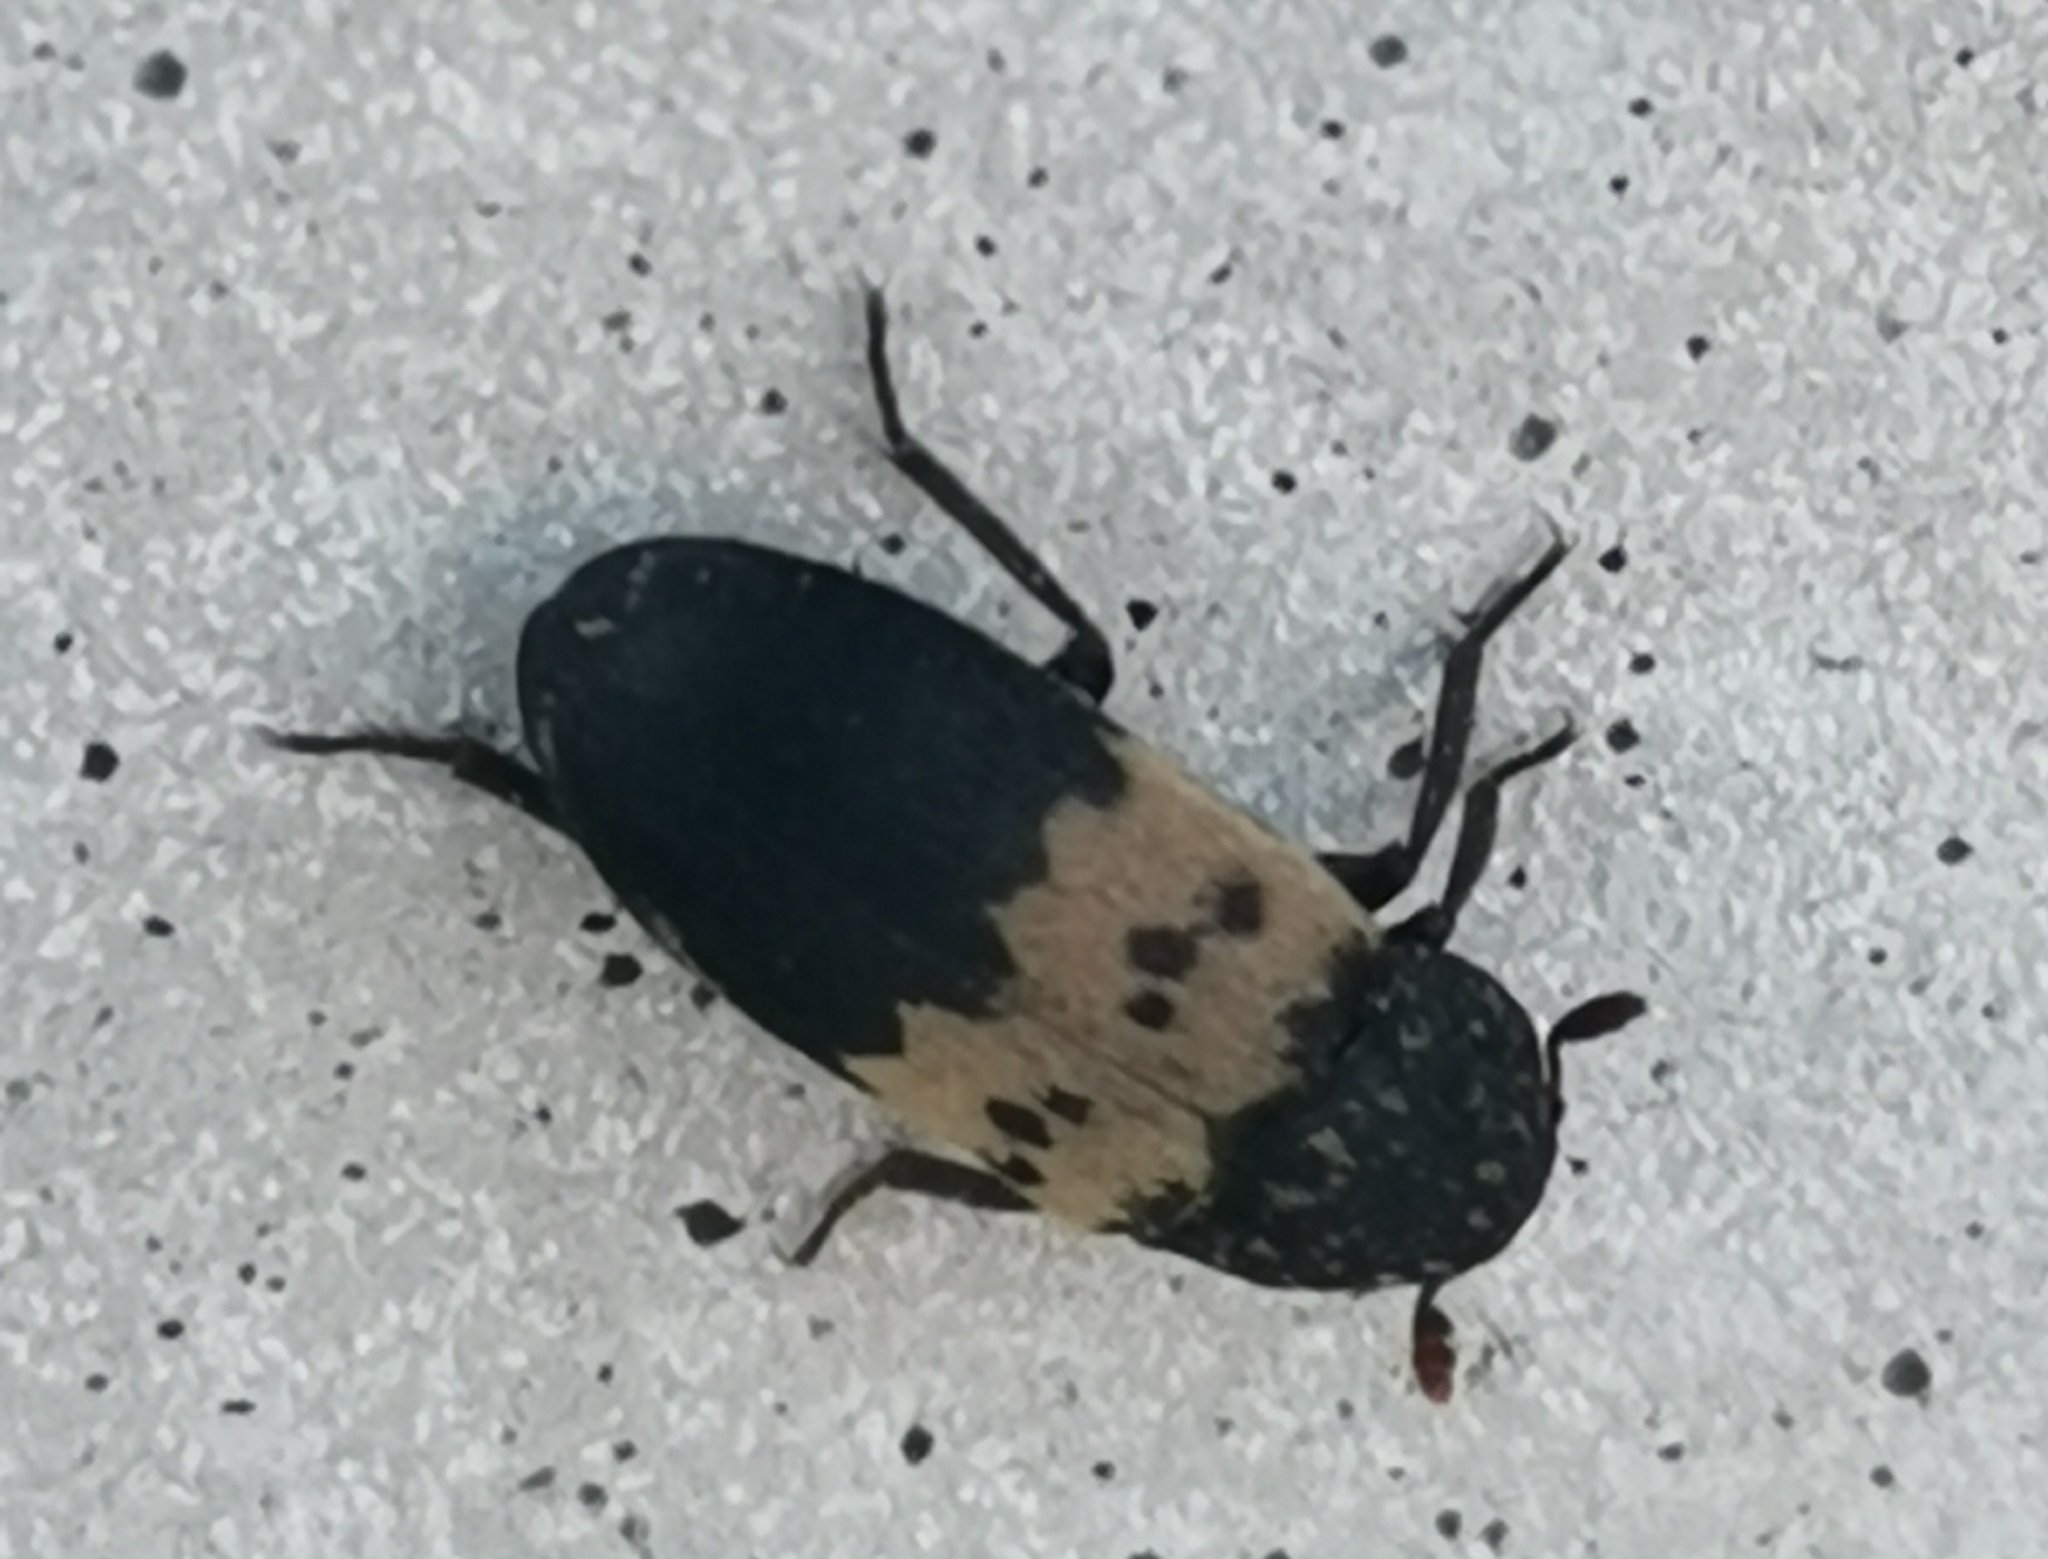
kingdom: Animalia
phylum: Arthropoda
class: Insecta
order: Coleoptera
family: Dermestidae
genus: Dermestes
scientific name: Dermestes lardarius
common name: Larder beetle
